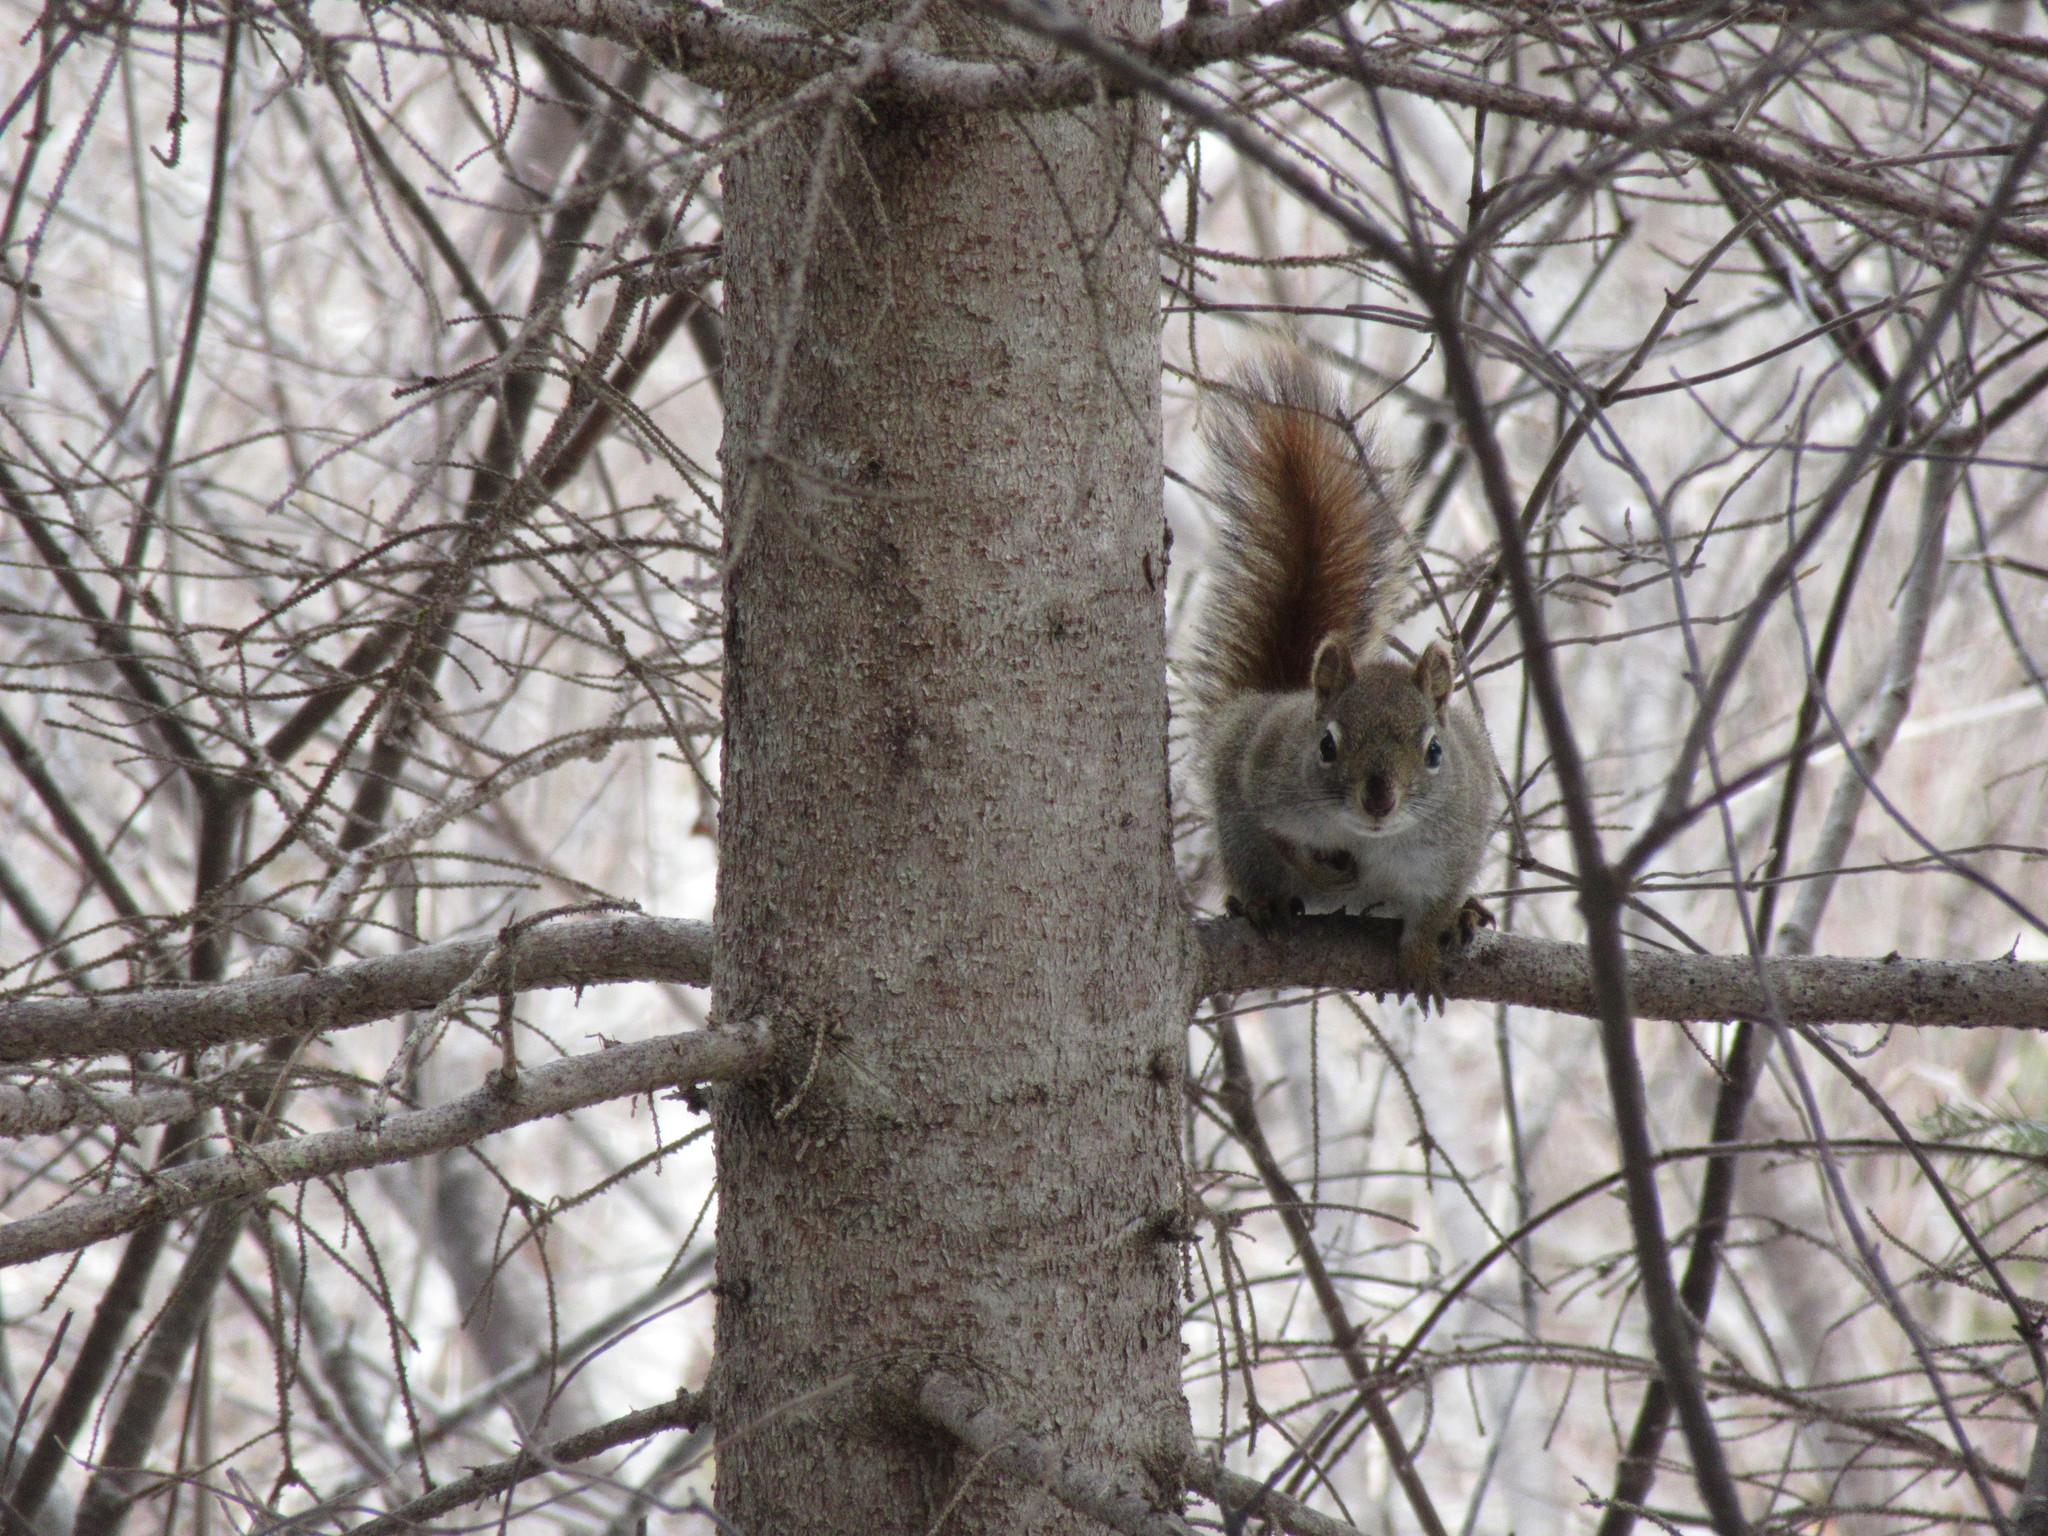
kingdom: Animalia
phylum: Chordata
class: Mammalia
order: Rodentia
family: Sciuridae
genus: Tamiasciurus
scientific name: Tamiasciurus hudsonicus
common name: Red squirrel
